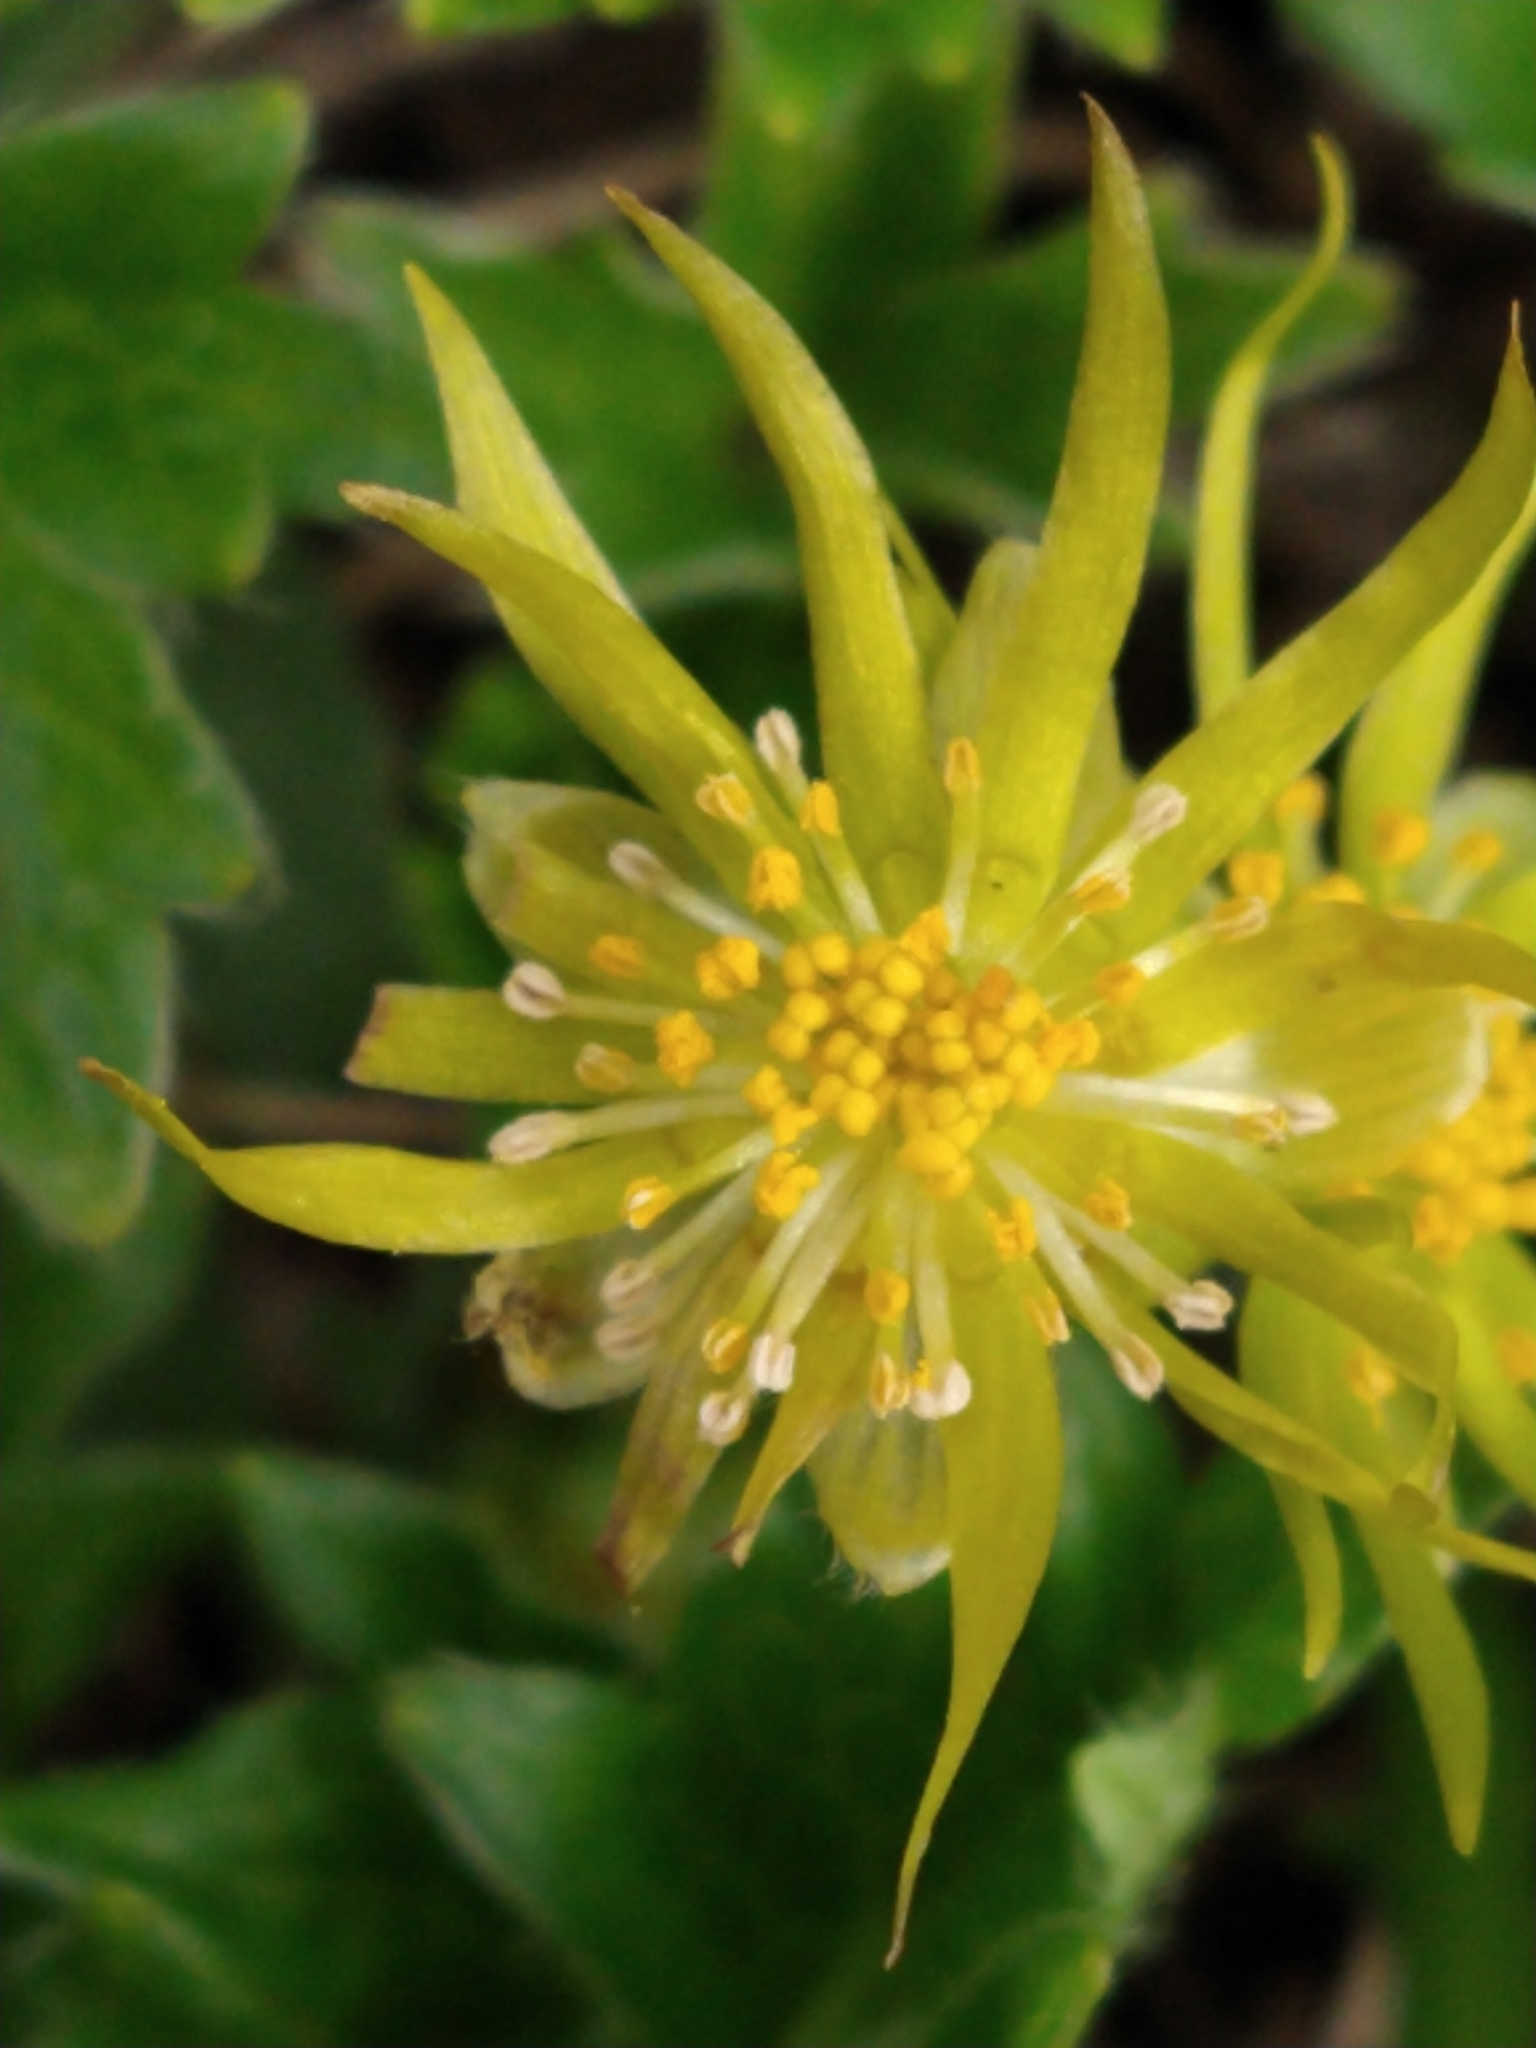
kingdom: Plantae
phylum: Tracheophyta
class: Magnoliopsida
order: Ranunculales
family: Ranunculaceae
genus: Hamadryas
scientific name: Hamadryas magellanica
